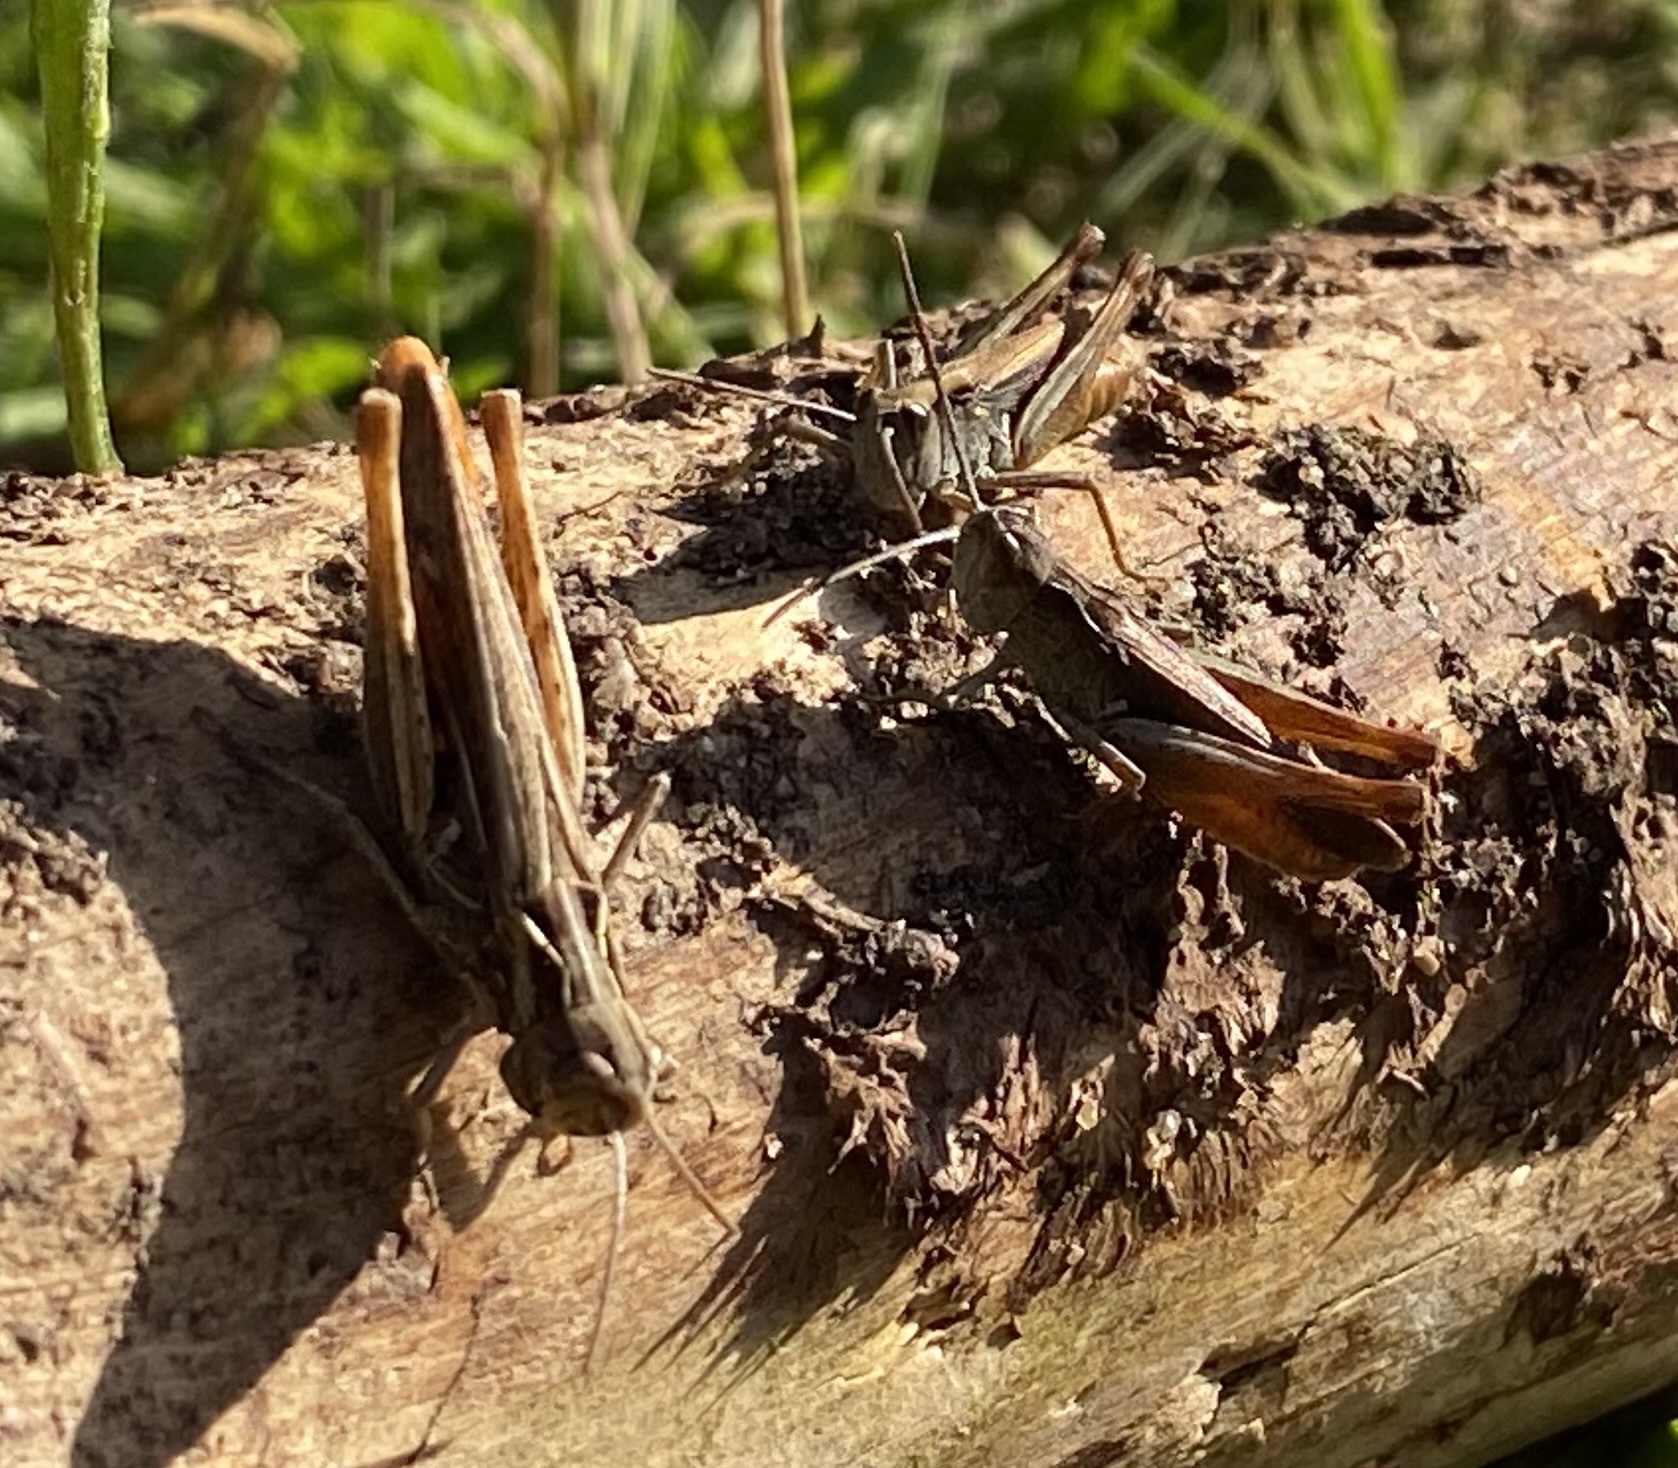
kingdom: Animalia
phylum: Arthropoda
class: Insecta
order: Orthoptera
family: Acrididae
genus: Chorthippus
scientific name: Chorthippus brunneus
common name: Field grasshopper
